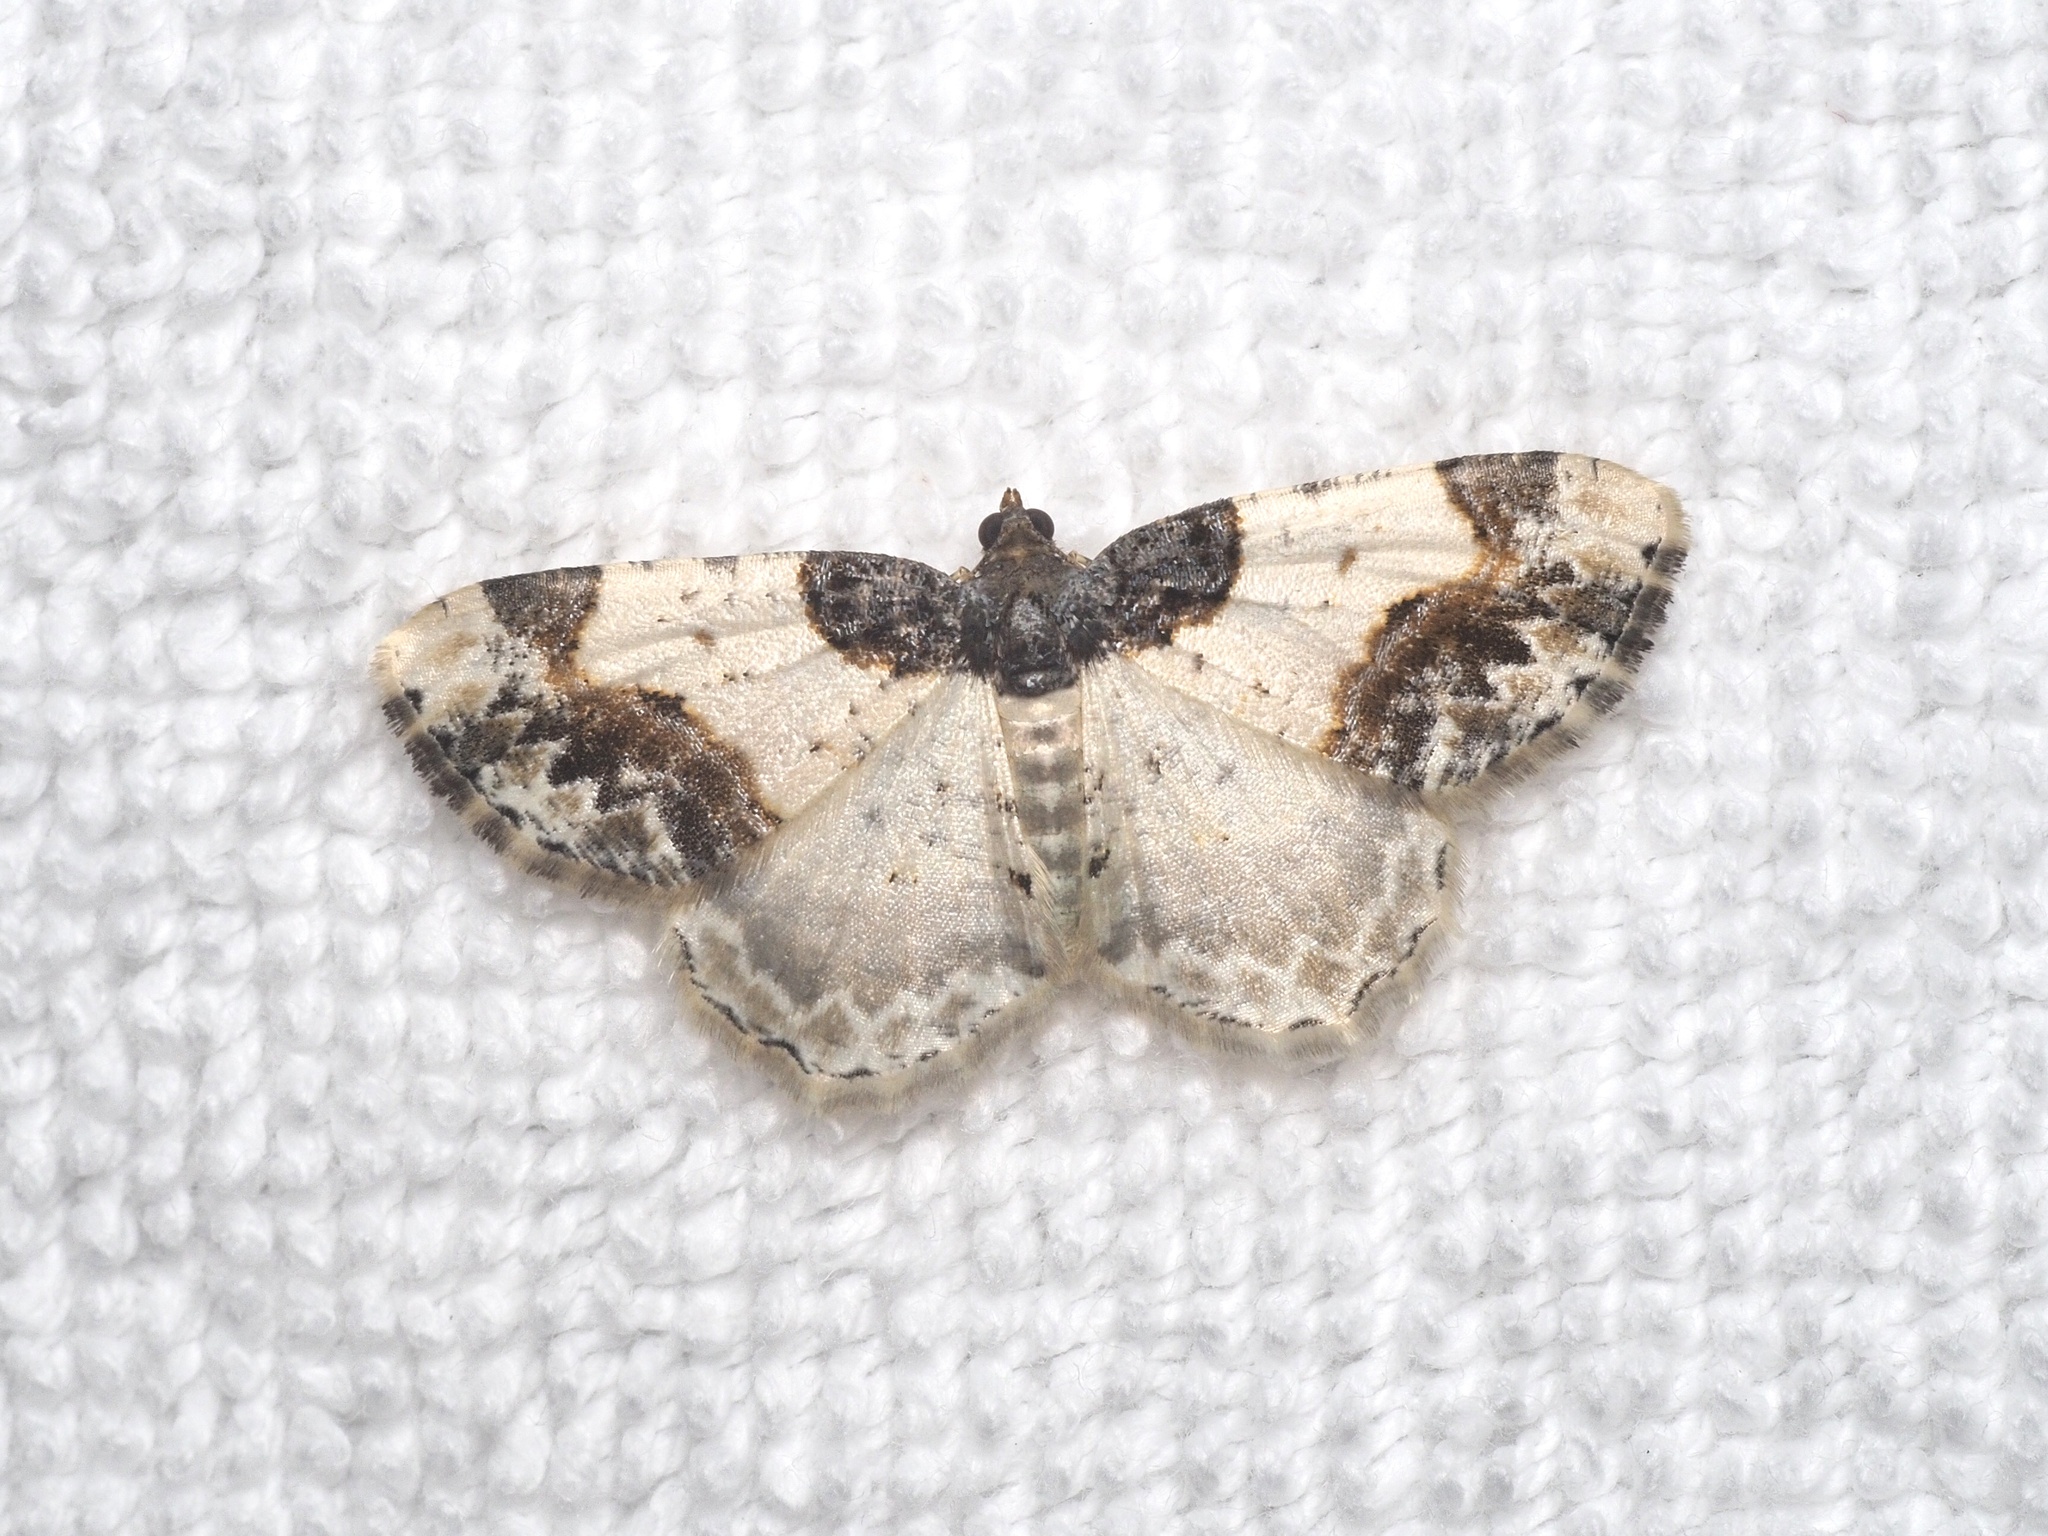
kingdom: Animalia
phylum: Arthropoda
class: Insecta
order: Lepidoptera
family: Geometridae
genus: Ligdia
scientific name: Ligdia adustata
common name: Scorched carpet
